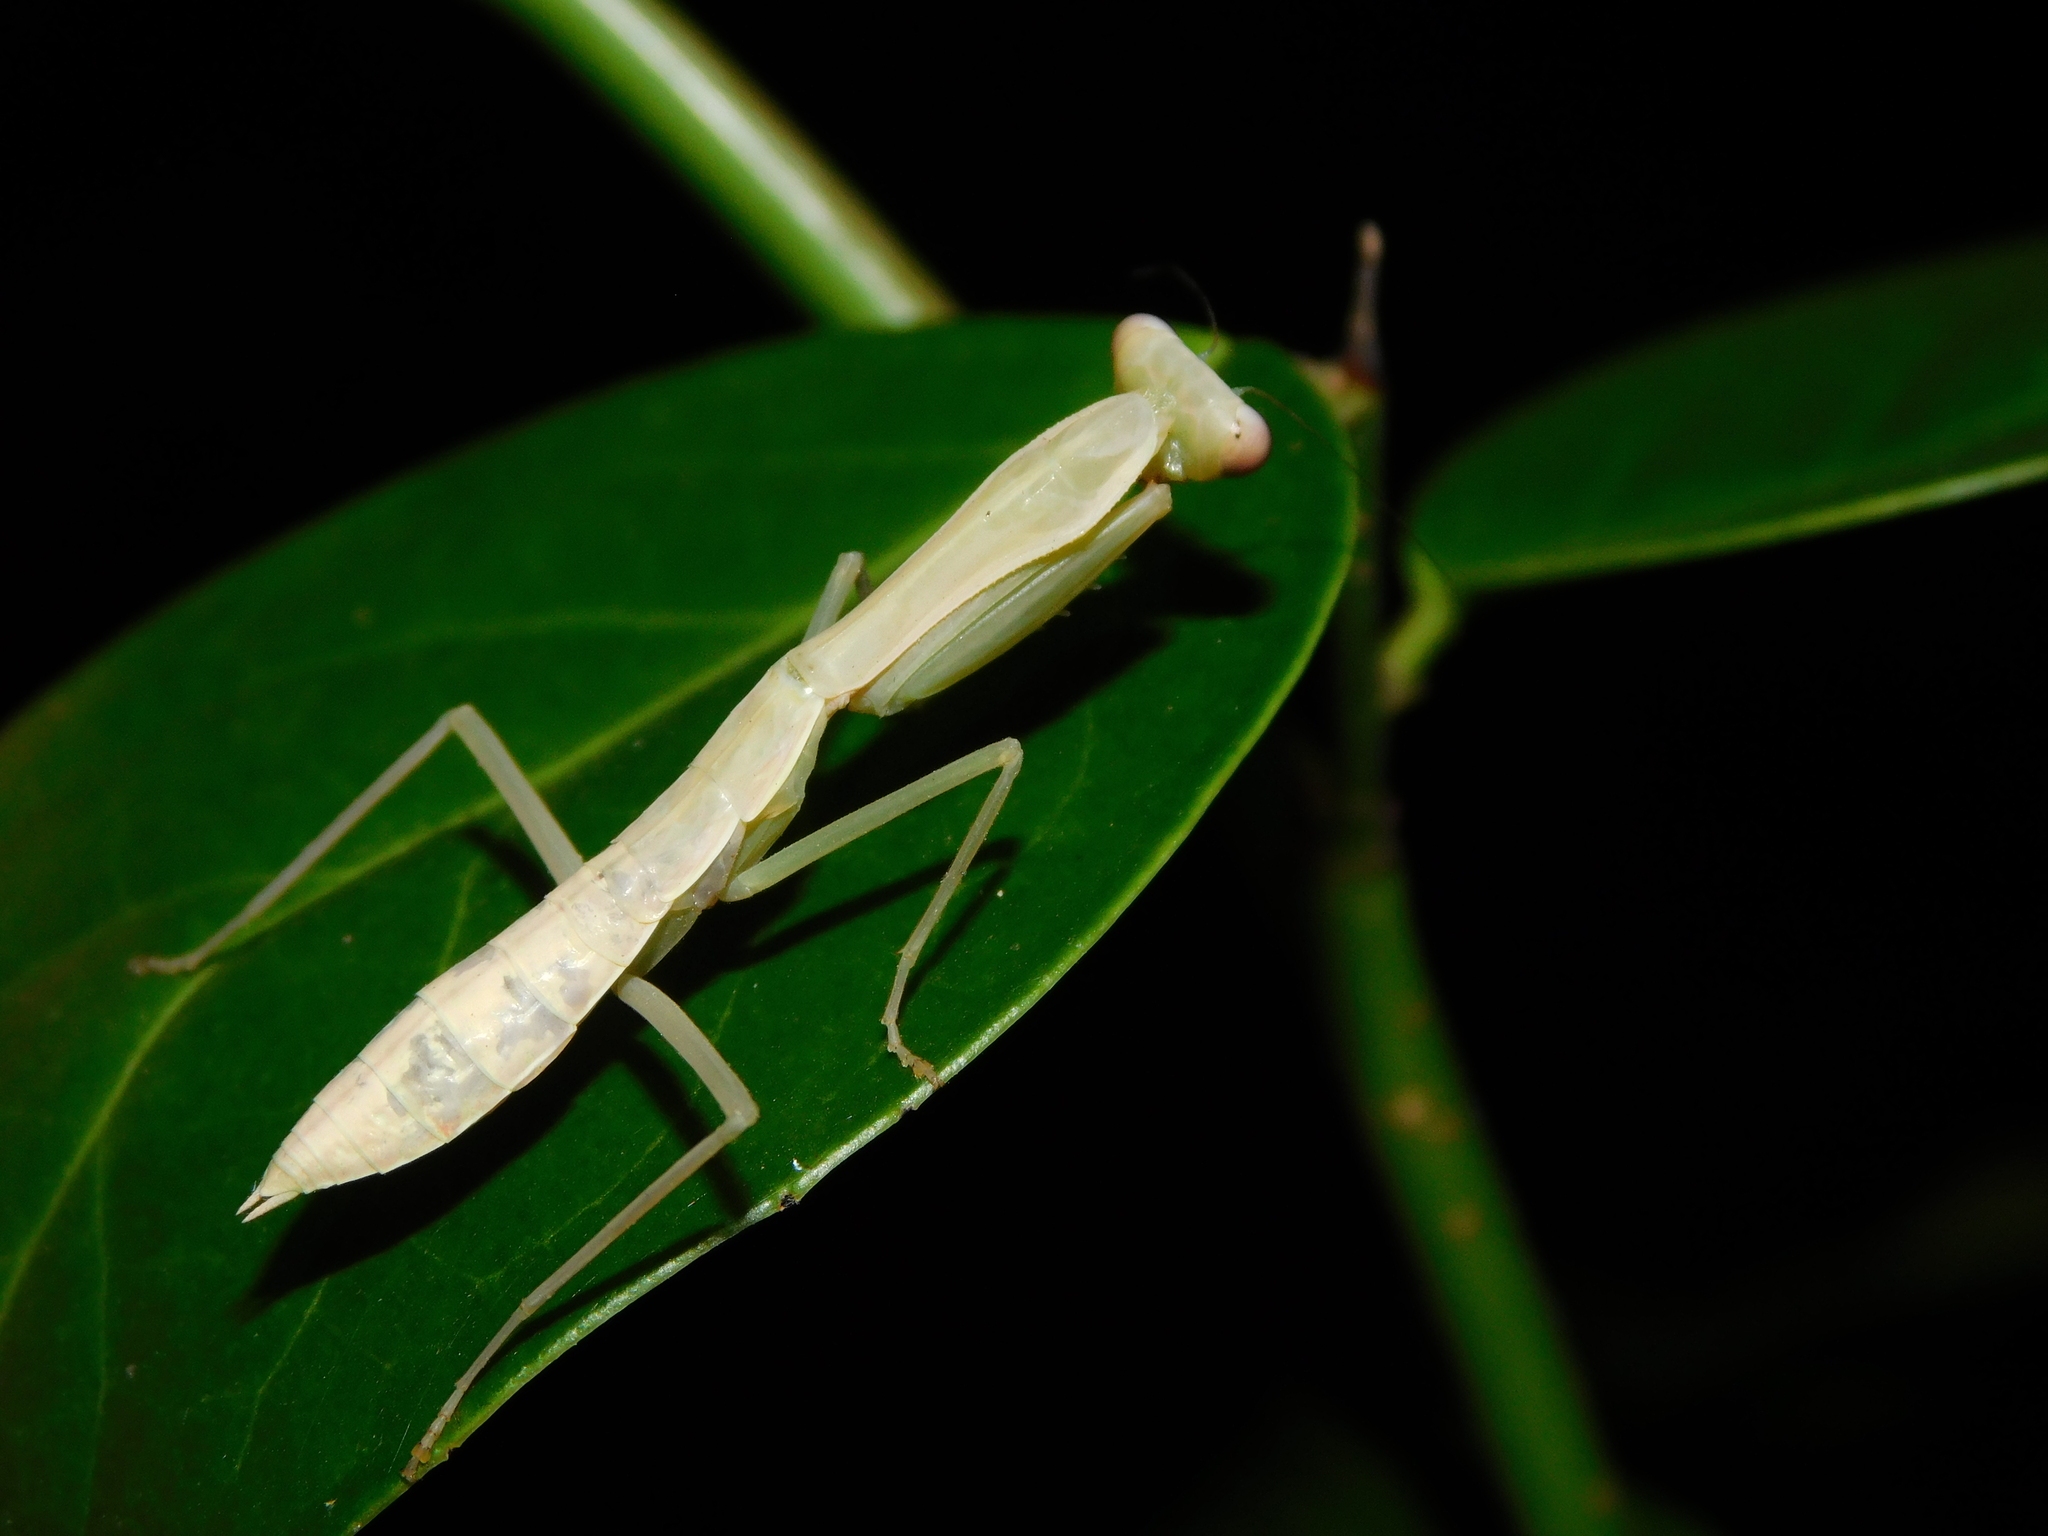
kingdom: Animalia
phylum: Arthropoda
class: Insecta
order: Mantodea
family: Mantidae
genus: Hierodula
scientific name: Hierodula venosa
